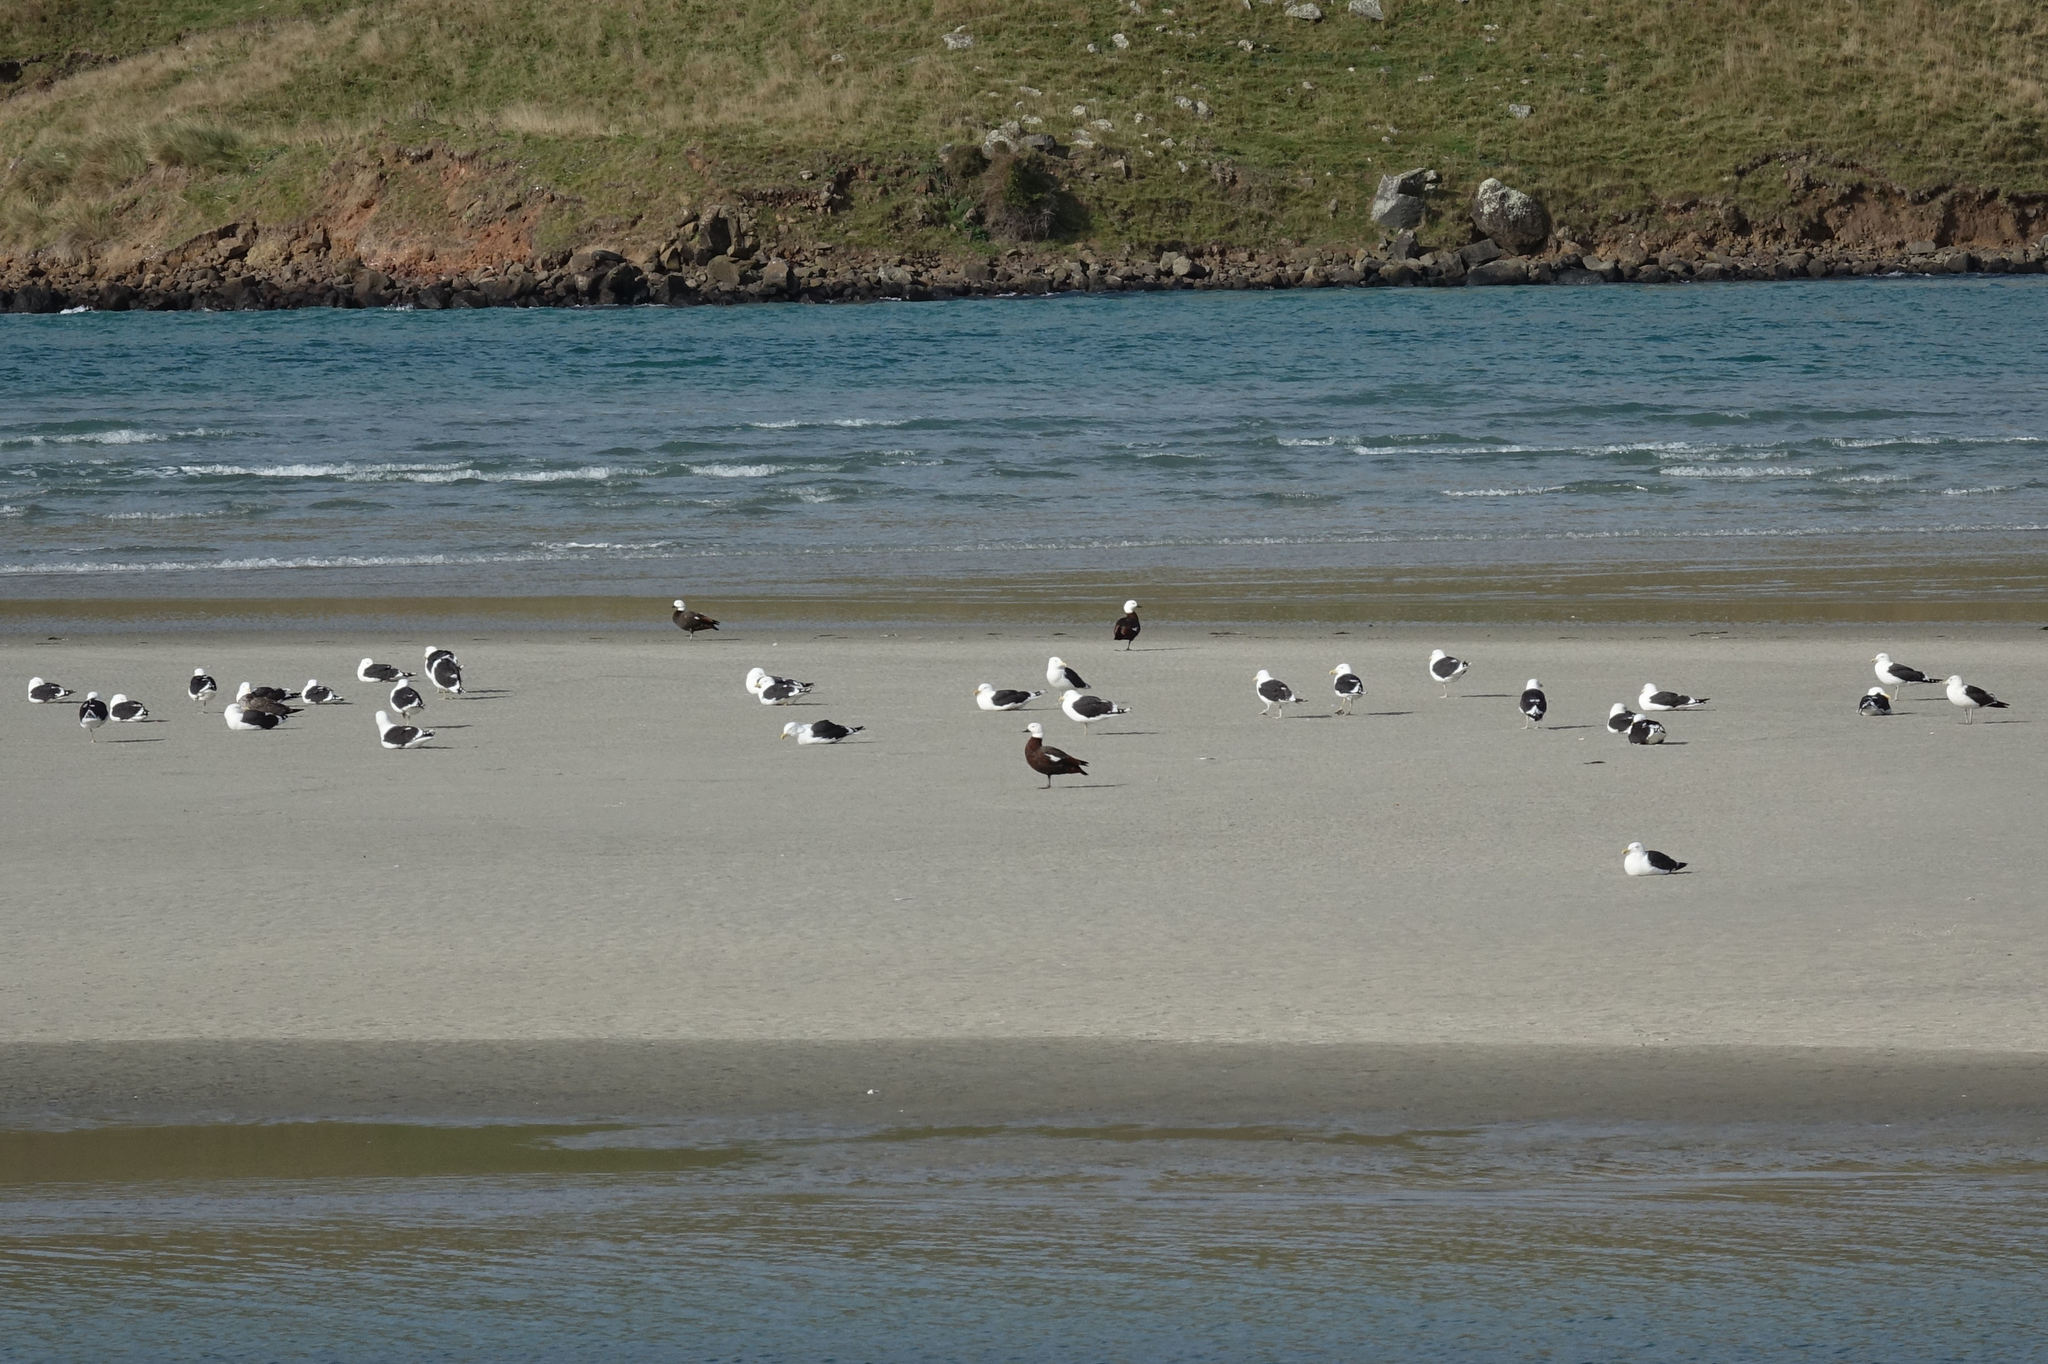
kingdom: Animalia
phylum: Chordata
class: Aves
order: Charadriiformes
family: Laridae
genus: Larus
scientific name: Larus dominicanus
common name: Kelp gull
